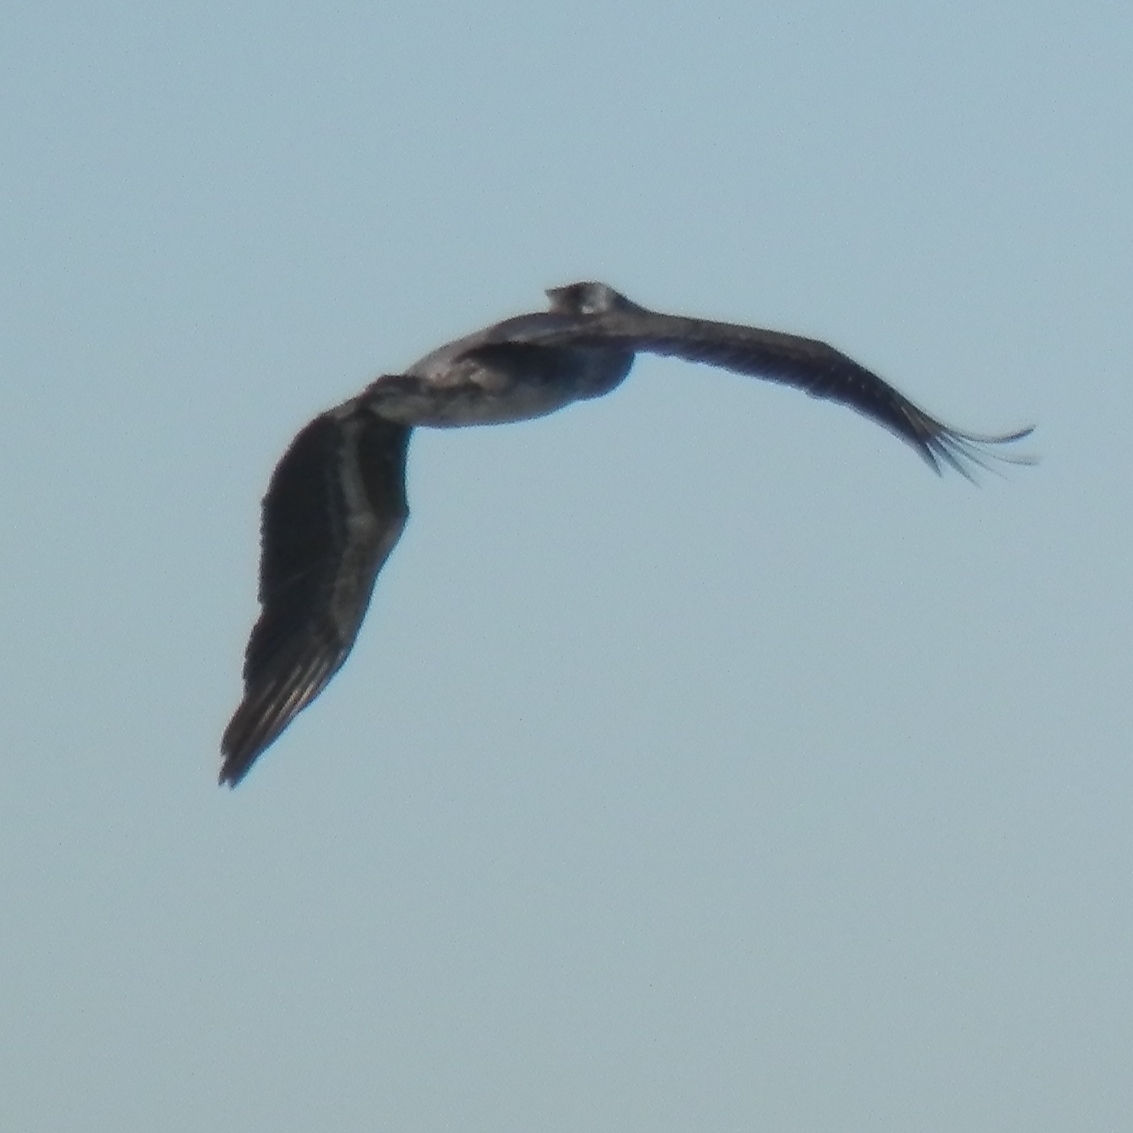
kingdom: Animalia
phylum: Chordata
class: Aves
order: Pelecaniformes
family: Pelecanidae
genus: Pelecanus
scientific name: Pelecanus occidentalis
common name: Brown pelican
